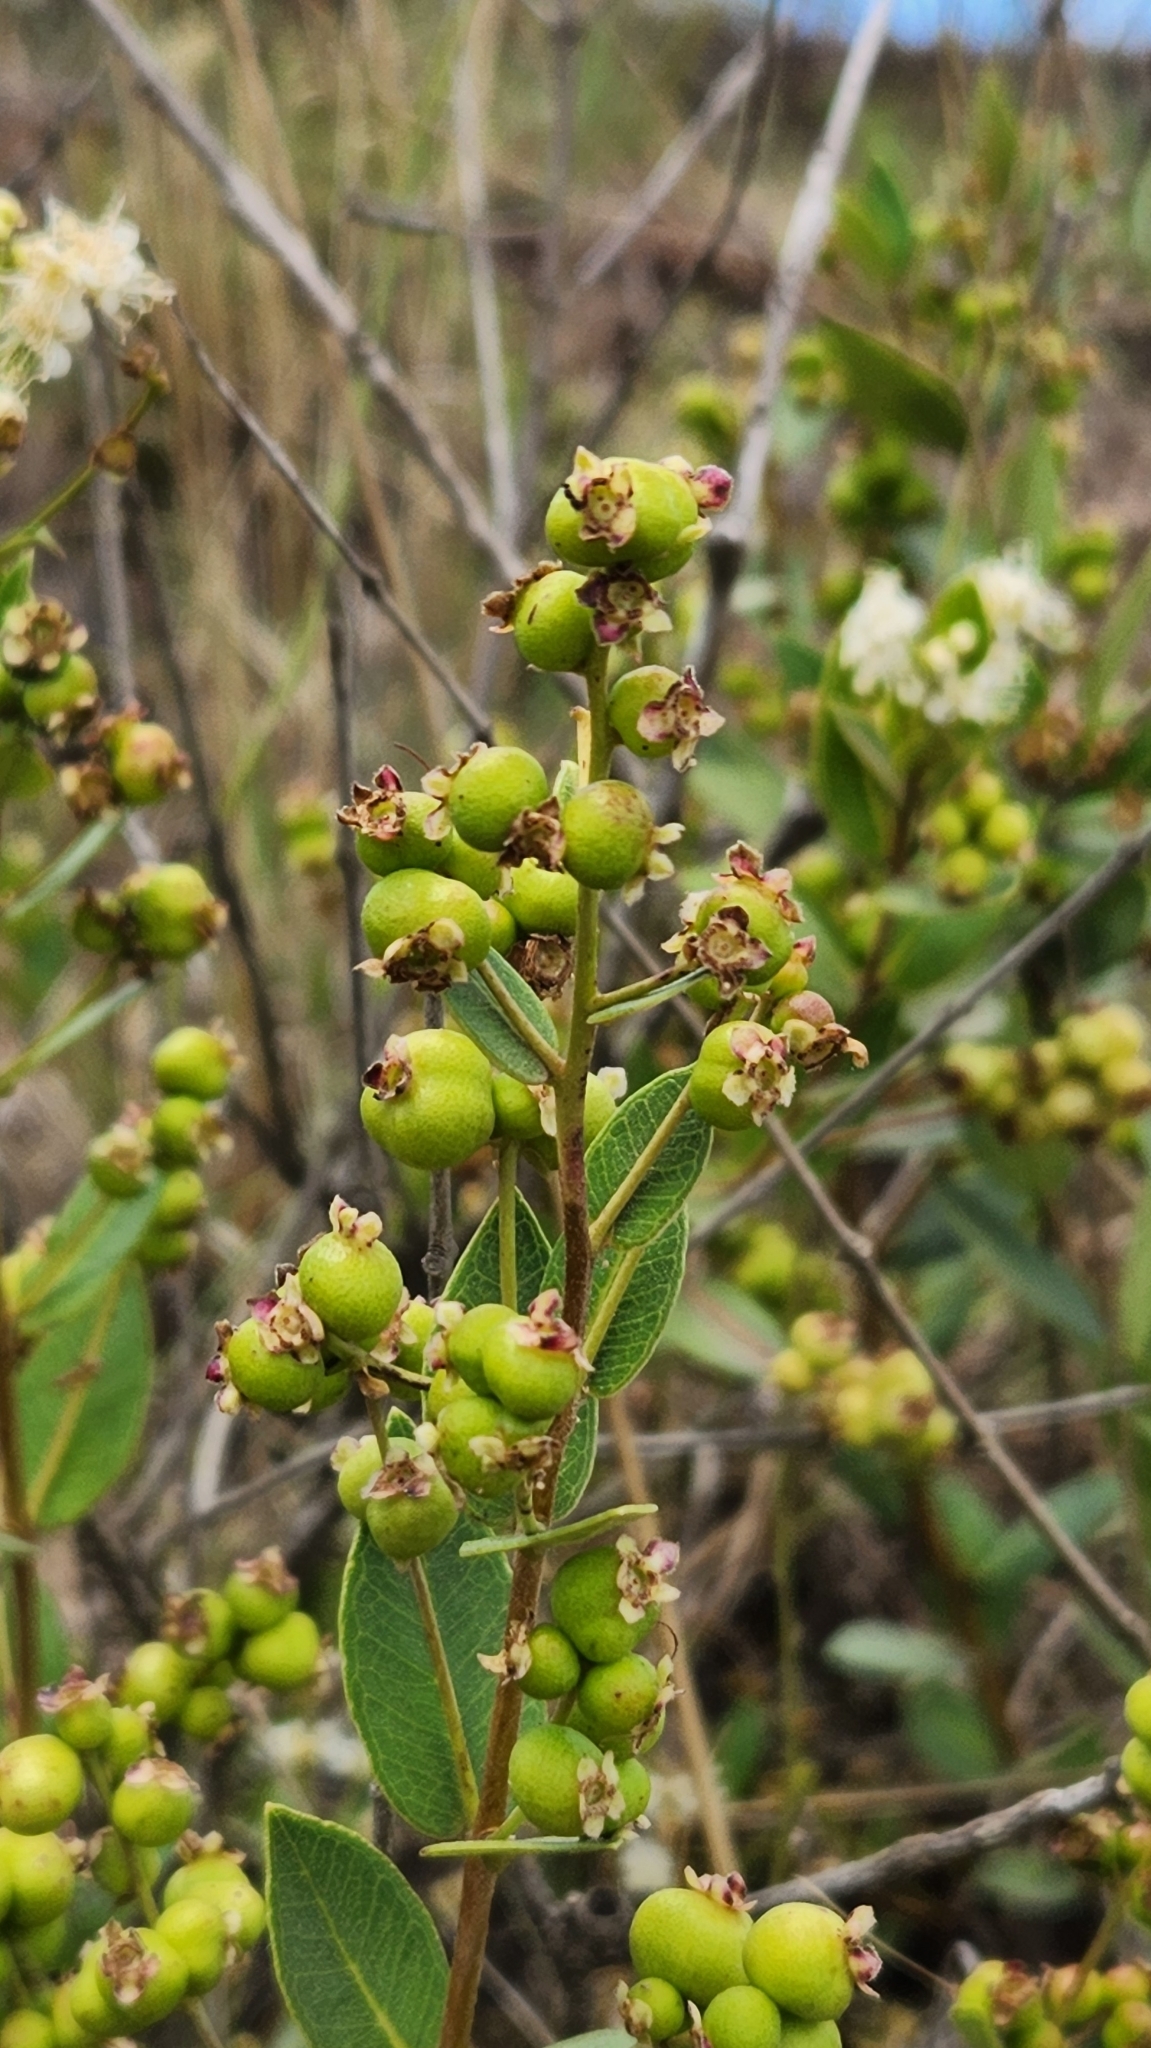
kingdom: Plantae
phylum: Tracheophyta
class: Magnoliopsida
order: Myrtales
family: Myrtaceae
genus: Myrcia
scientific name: Myrcia verticillaris
